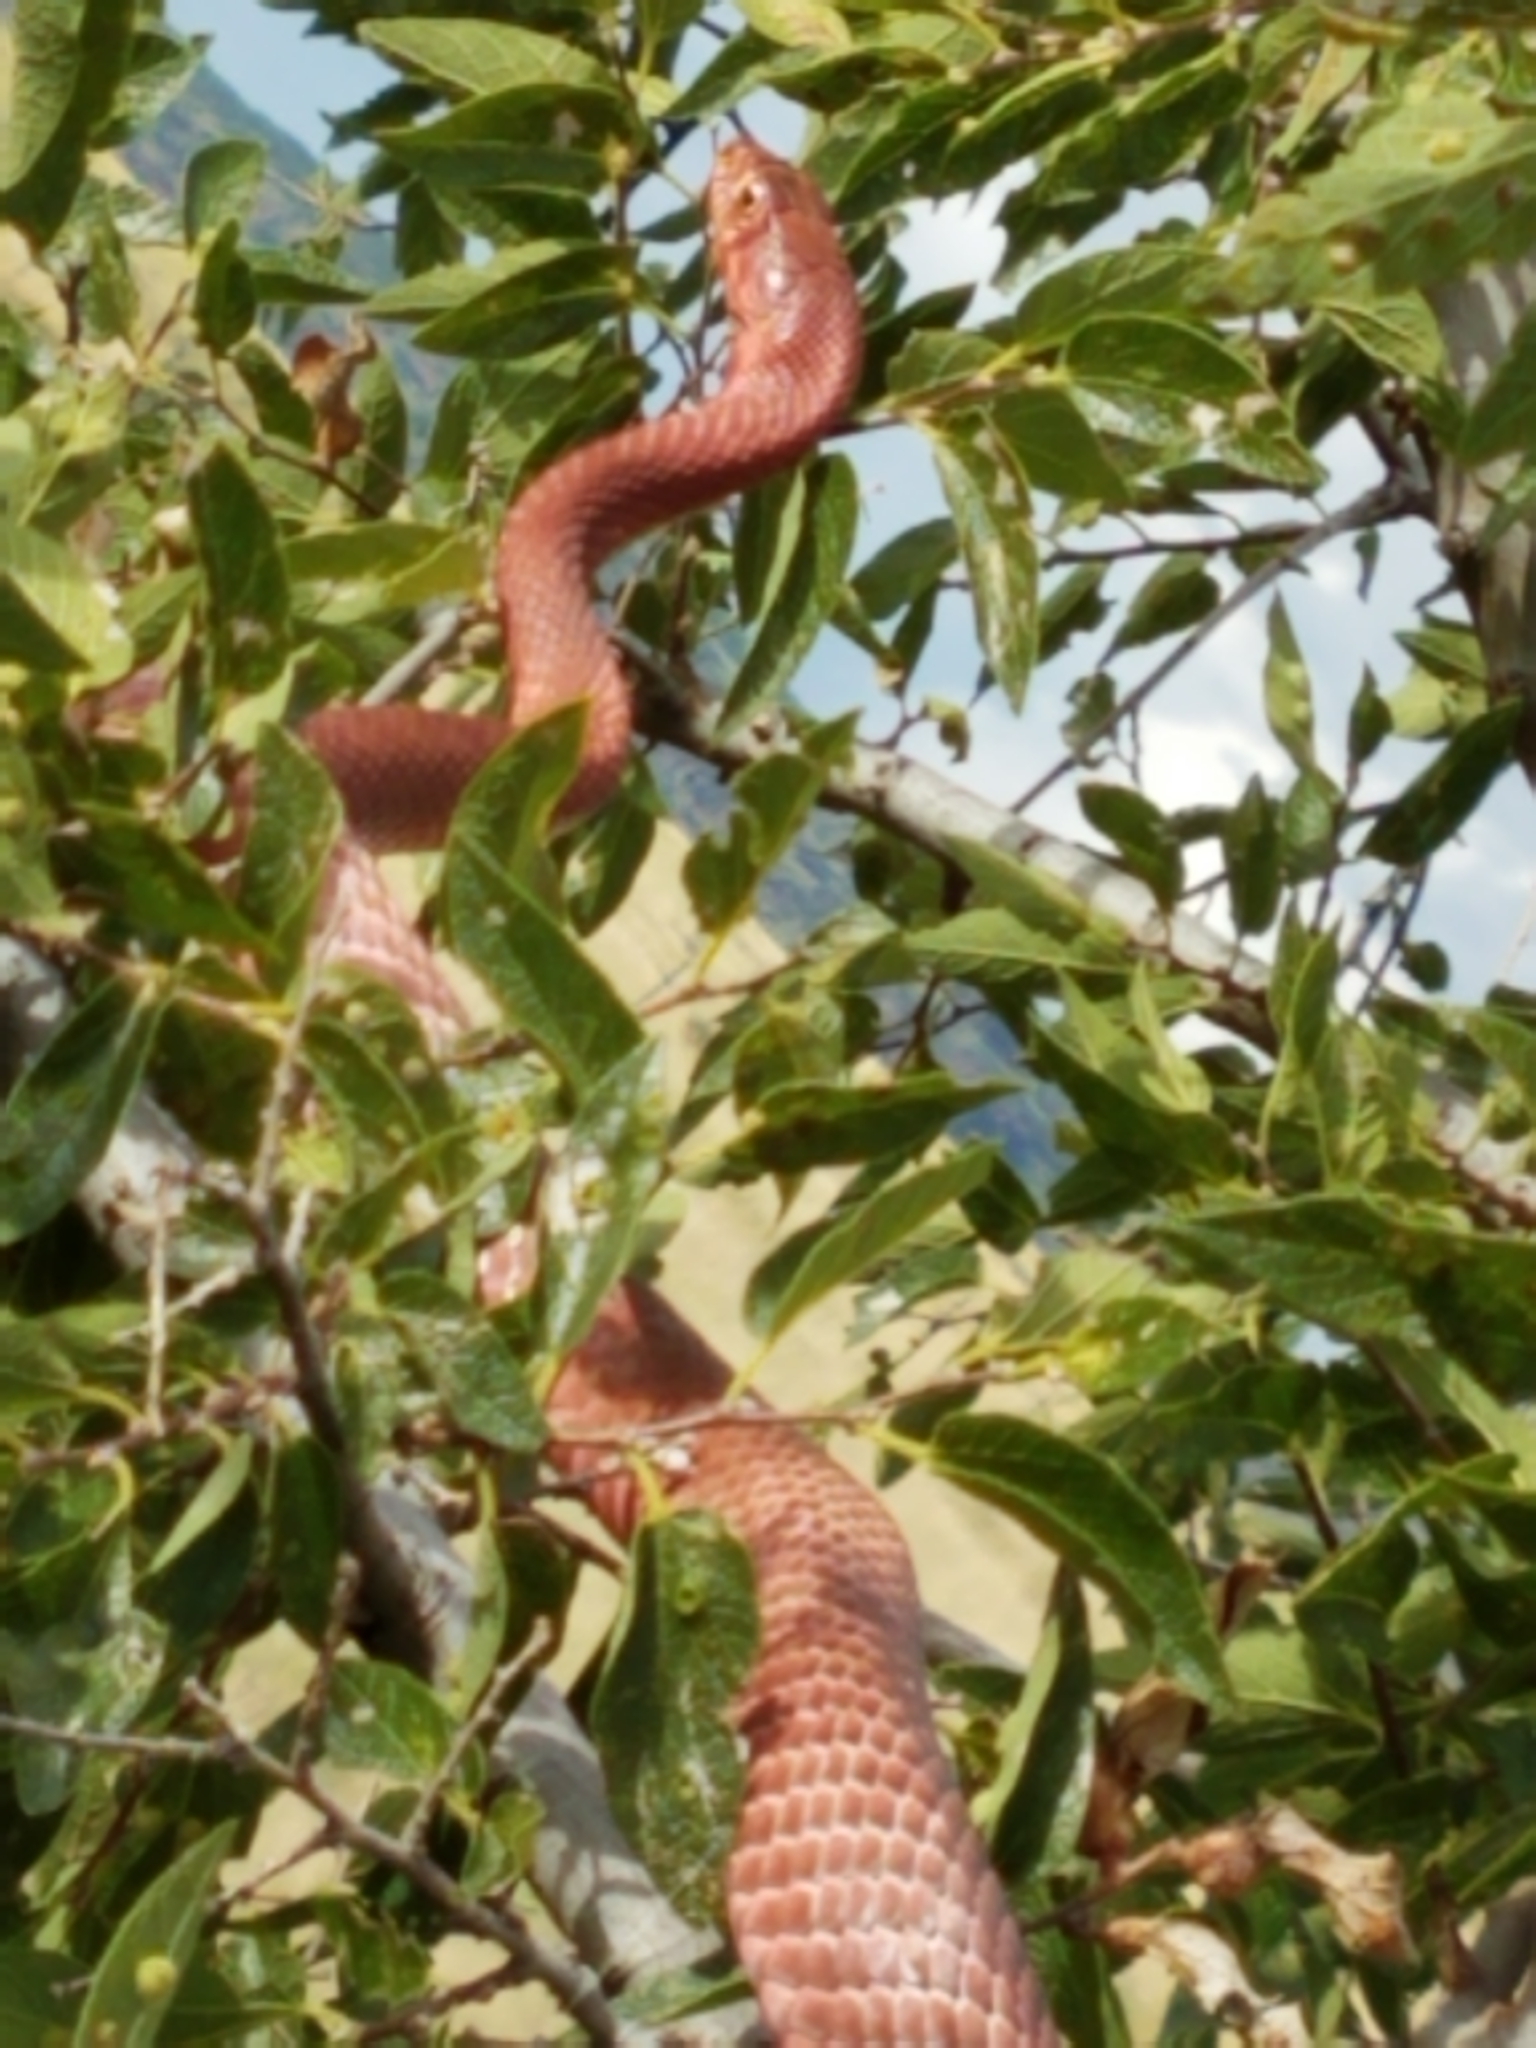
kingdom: Animalia
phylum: Chordata
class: Squamata
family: Colubridae
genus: Masticophis
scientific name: Masticophis flagellum
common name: Coachwhip
